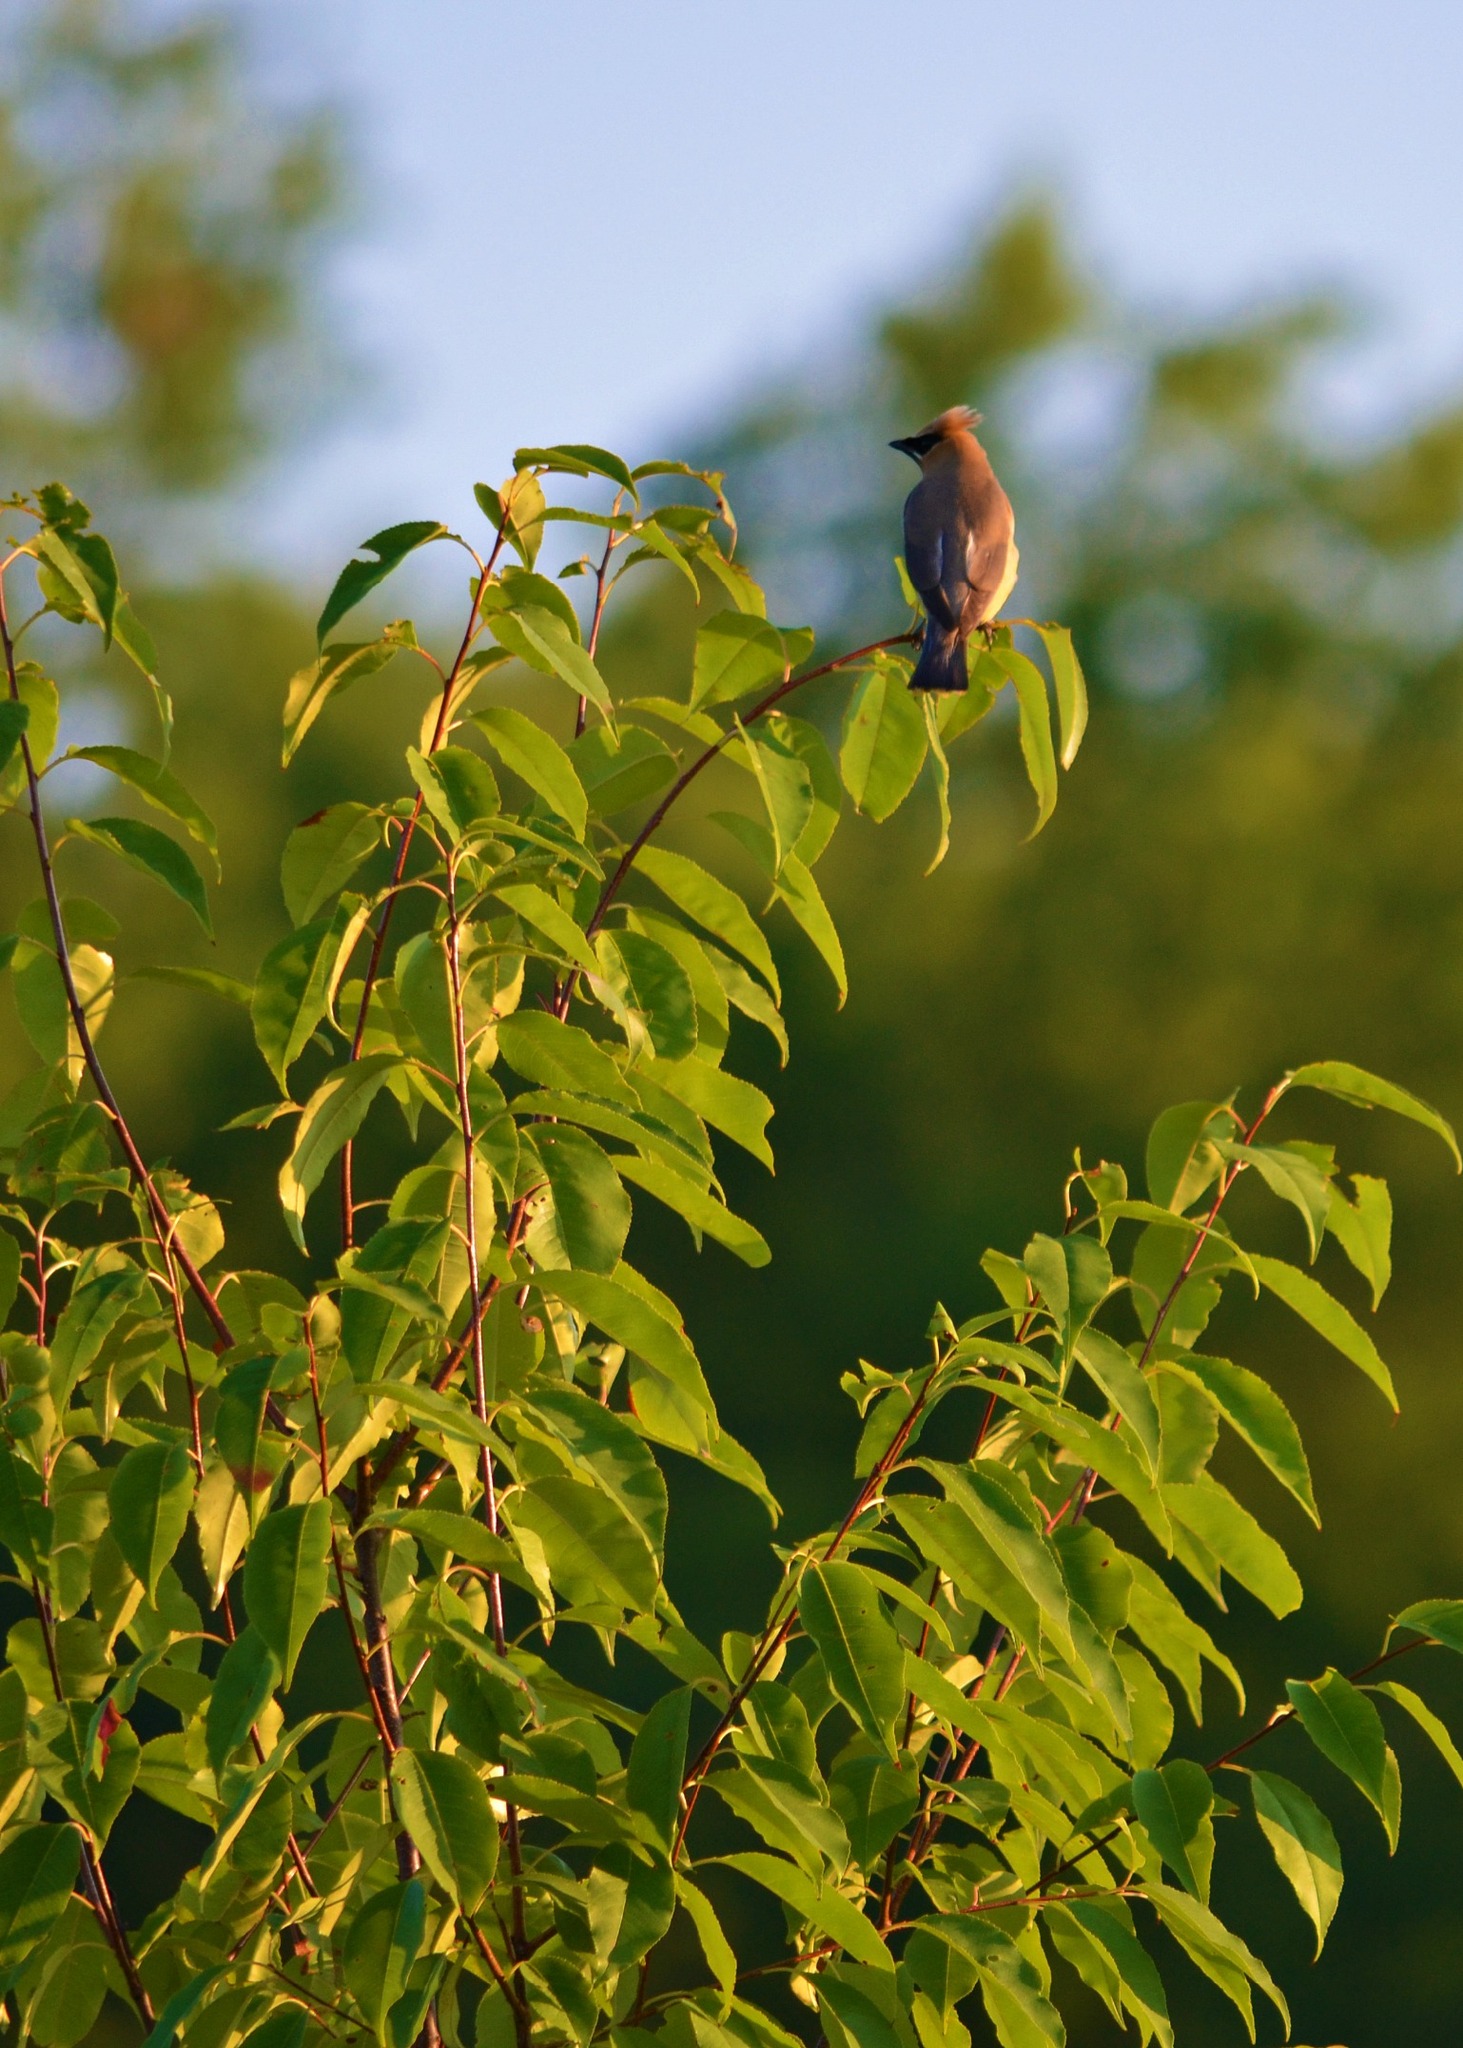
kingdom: Animalia
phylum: Chordata
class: Aves
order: Passeriformes
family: Bombycillidae
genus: Bombycilla
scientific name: Bombycilla cedrorum
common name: Cedar waxwing
